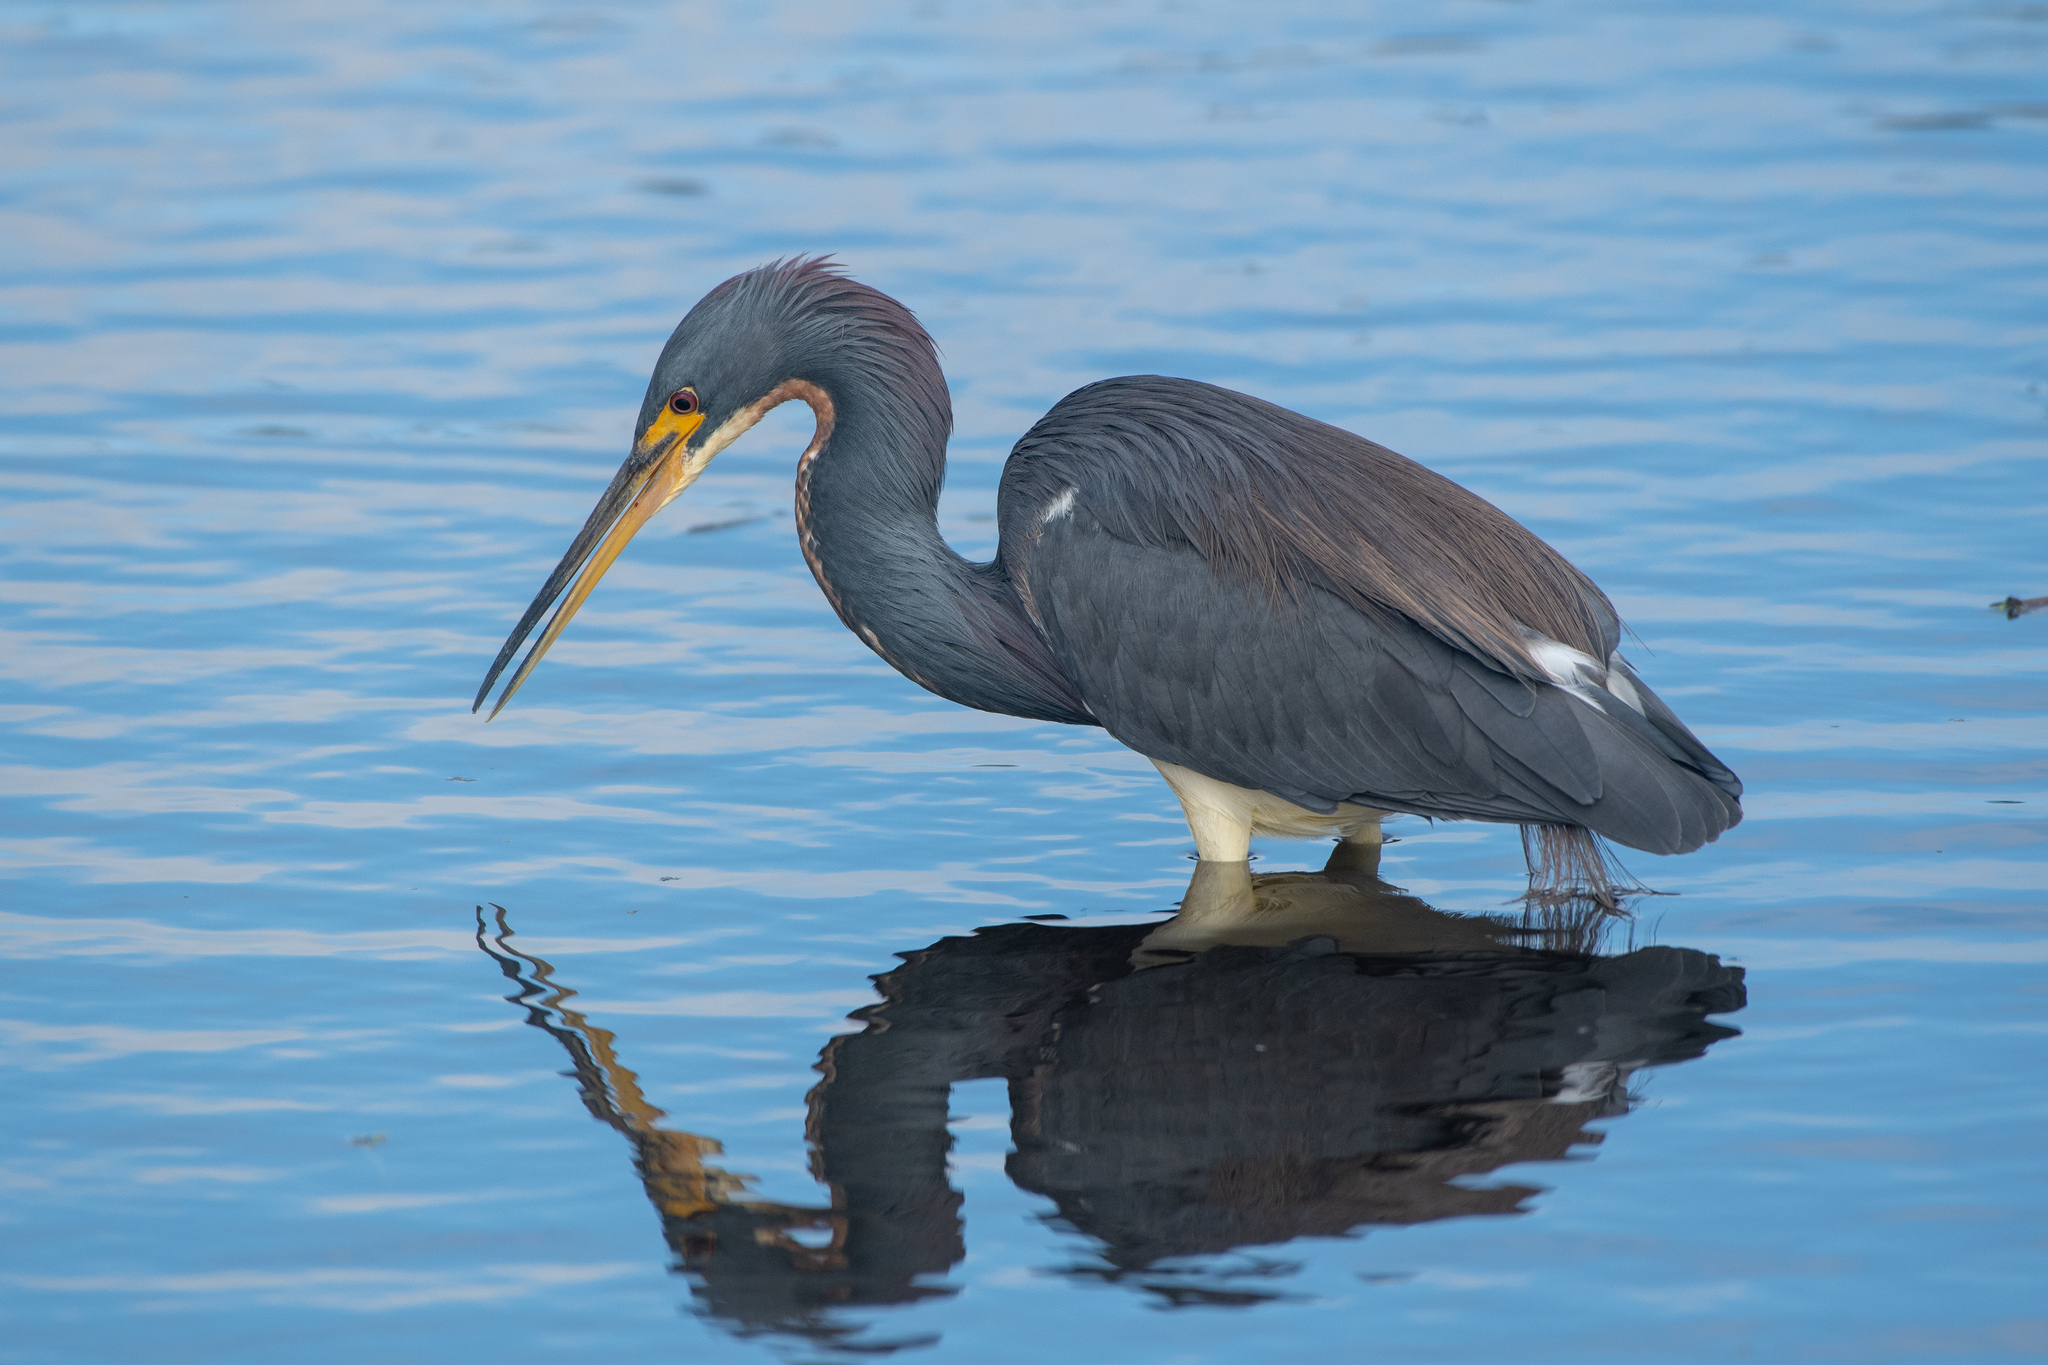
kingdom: Animalia
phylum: Chordata
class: Aves
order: Pelecaniformes
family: Ardeidae
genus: Egretta
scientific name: Egretta tricolor
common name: Tricolored heron
